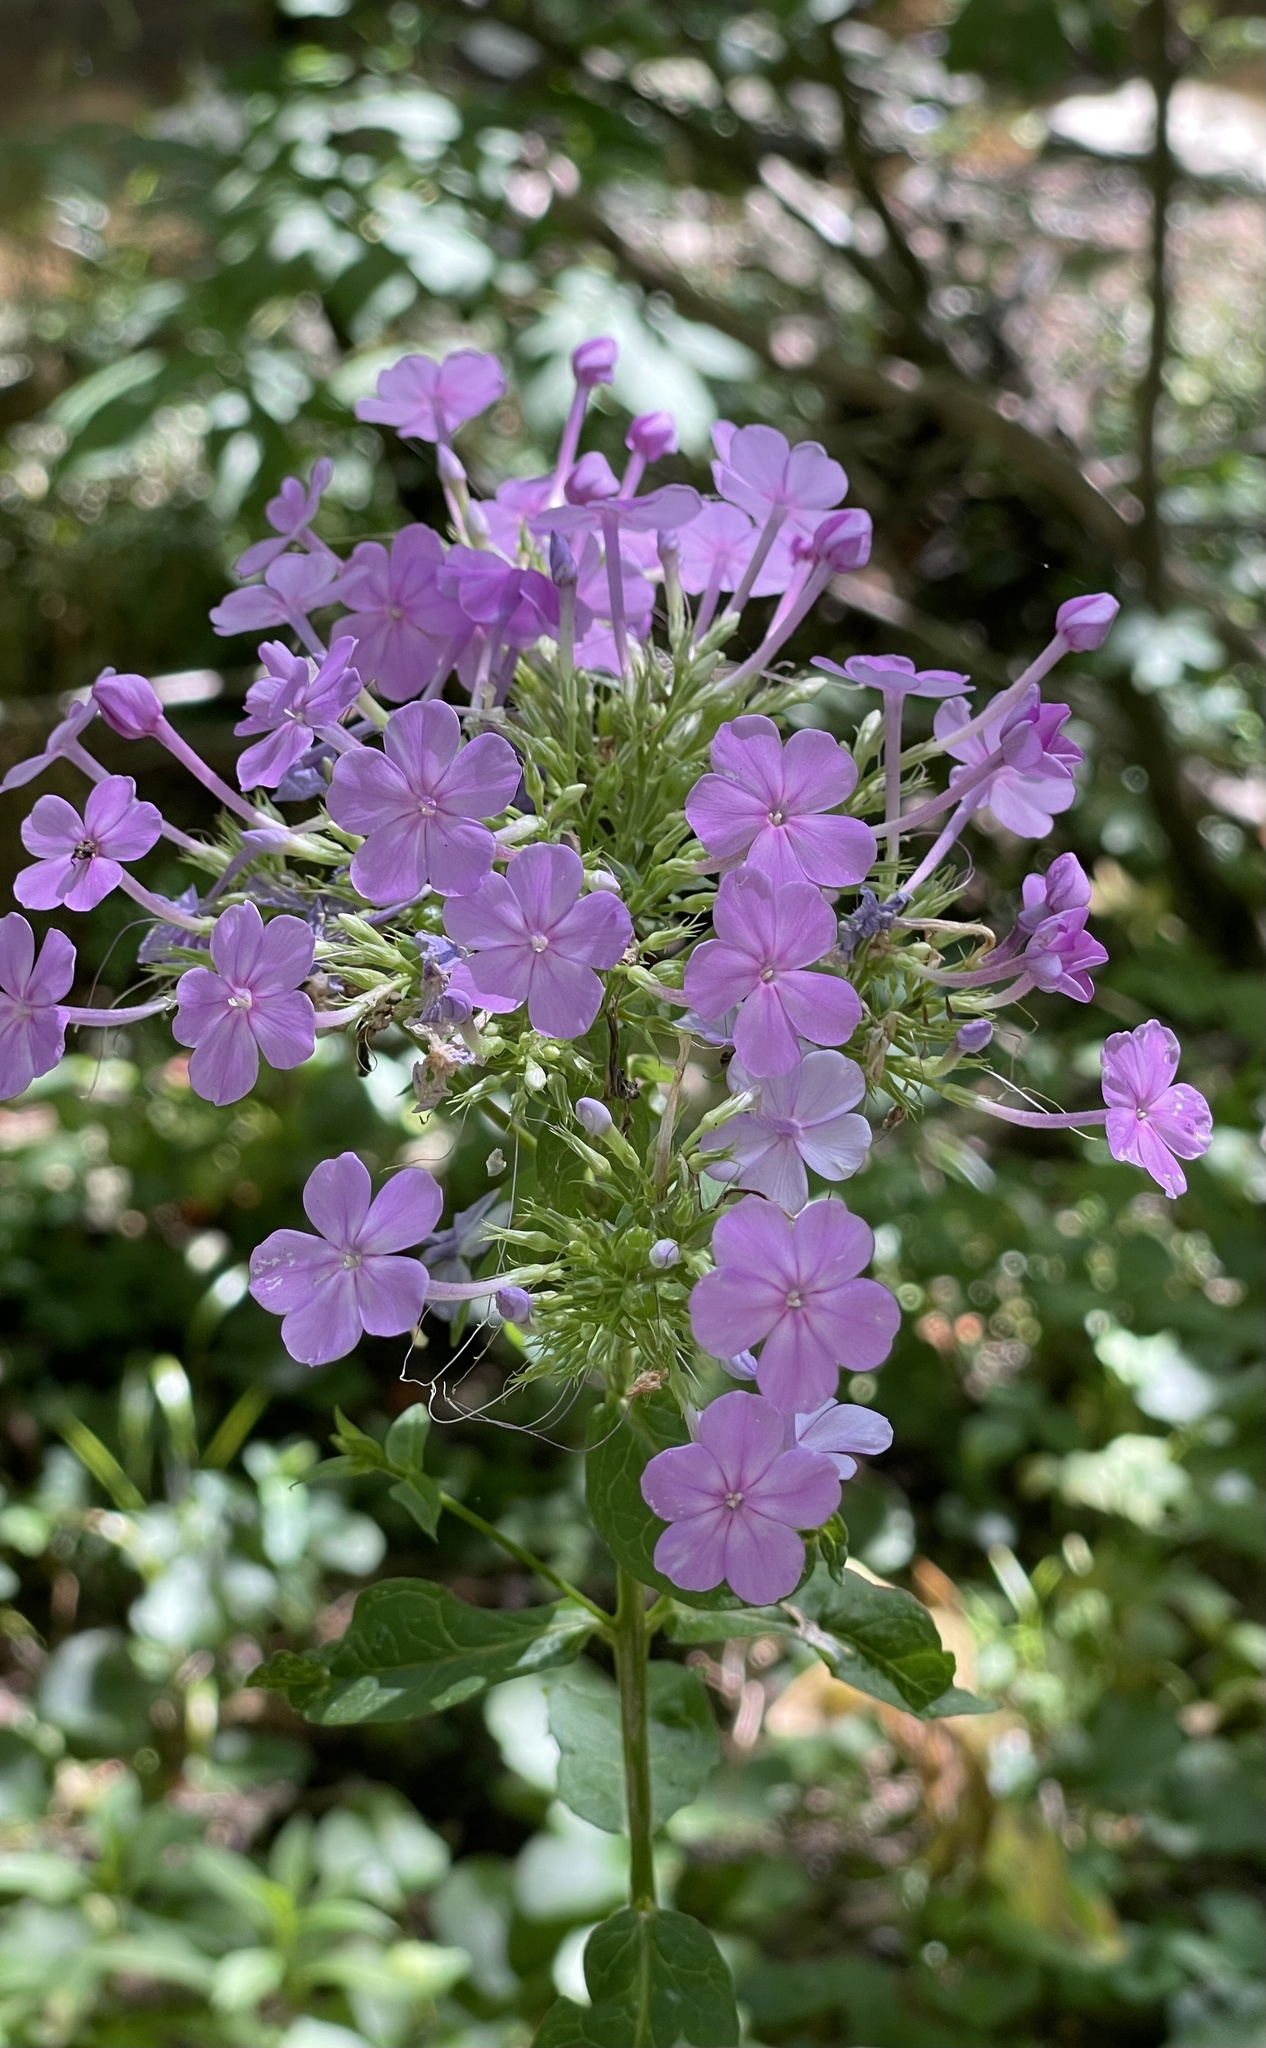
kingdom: Plantae
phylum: Tracheophyta
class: Magnoliopsida
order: Ericales
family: Polemoniaceae
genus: Phlox
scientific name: Phlox paniculata
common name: Fall phlox
